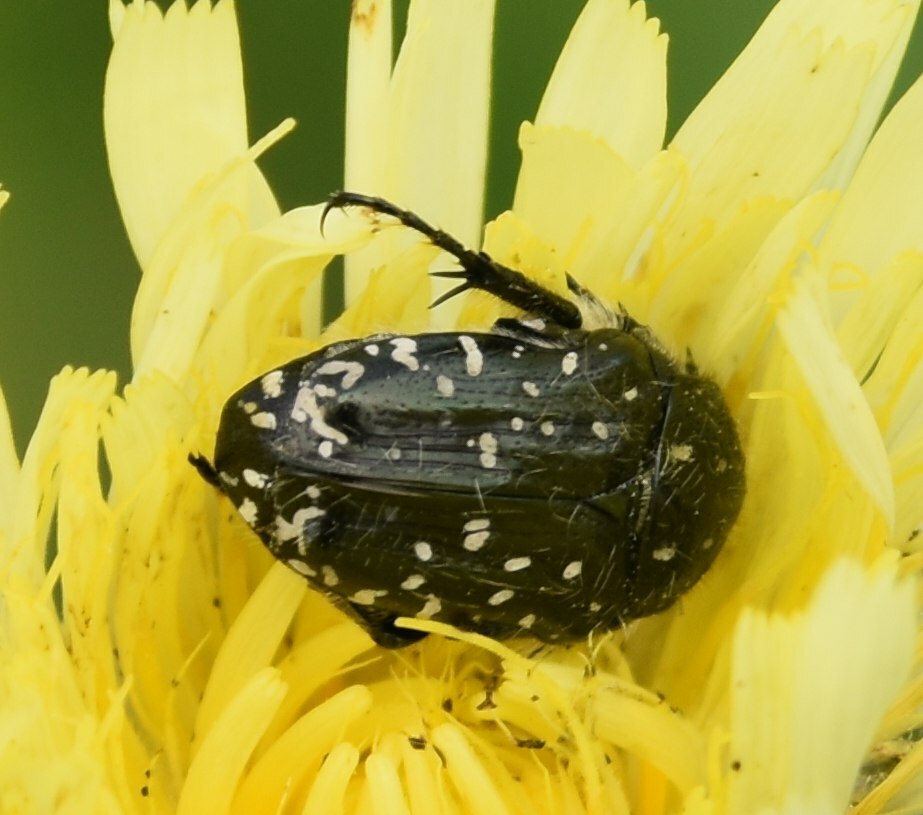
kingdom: Animalia
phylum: Arthropoda
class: Insecta
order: Coleoptera
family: Scarabaeidae
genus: Oxythyrea
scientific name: Oxythyrea funesta
